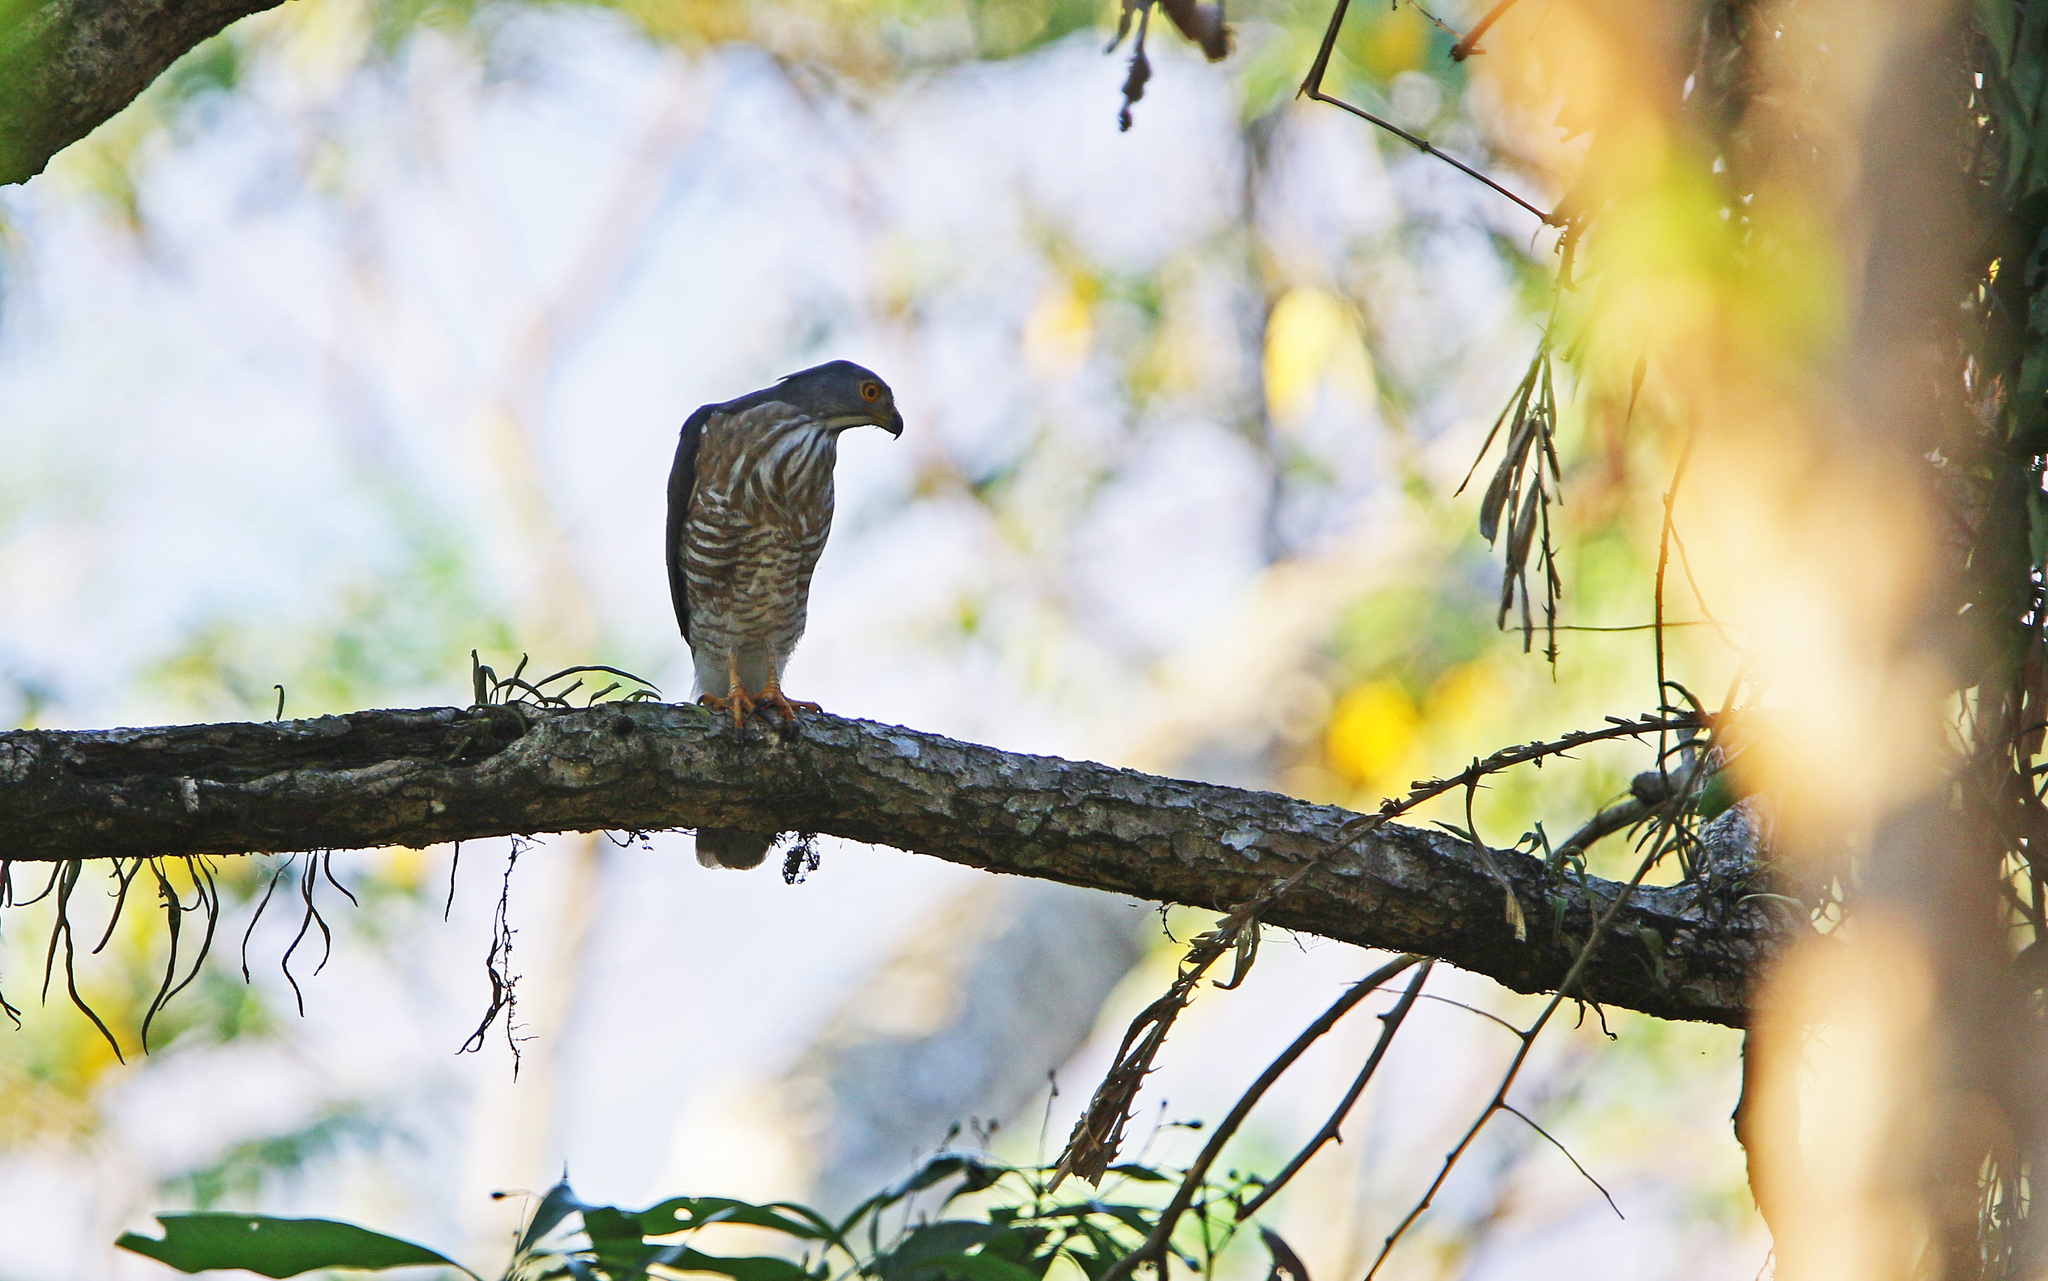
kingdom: Animalia
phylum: Chordata
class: Aves
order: Accipitriformes
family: Accipitridae
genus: Accipiter
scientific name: Accipiter trivirgatus
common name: Crested goshawk
